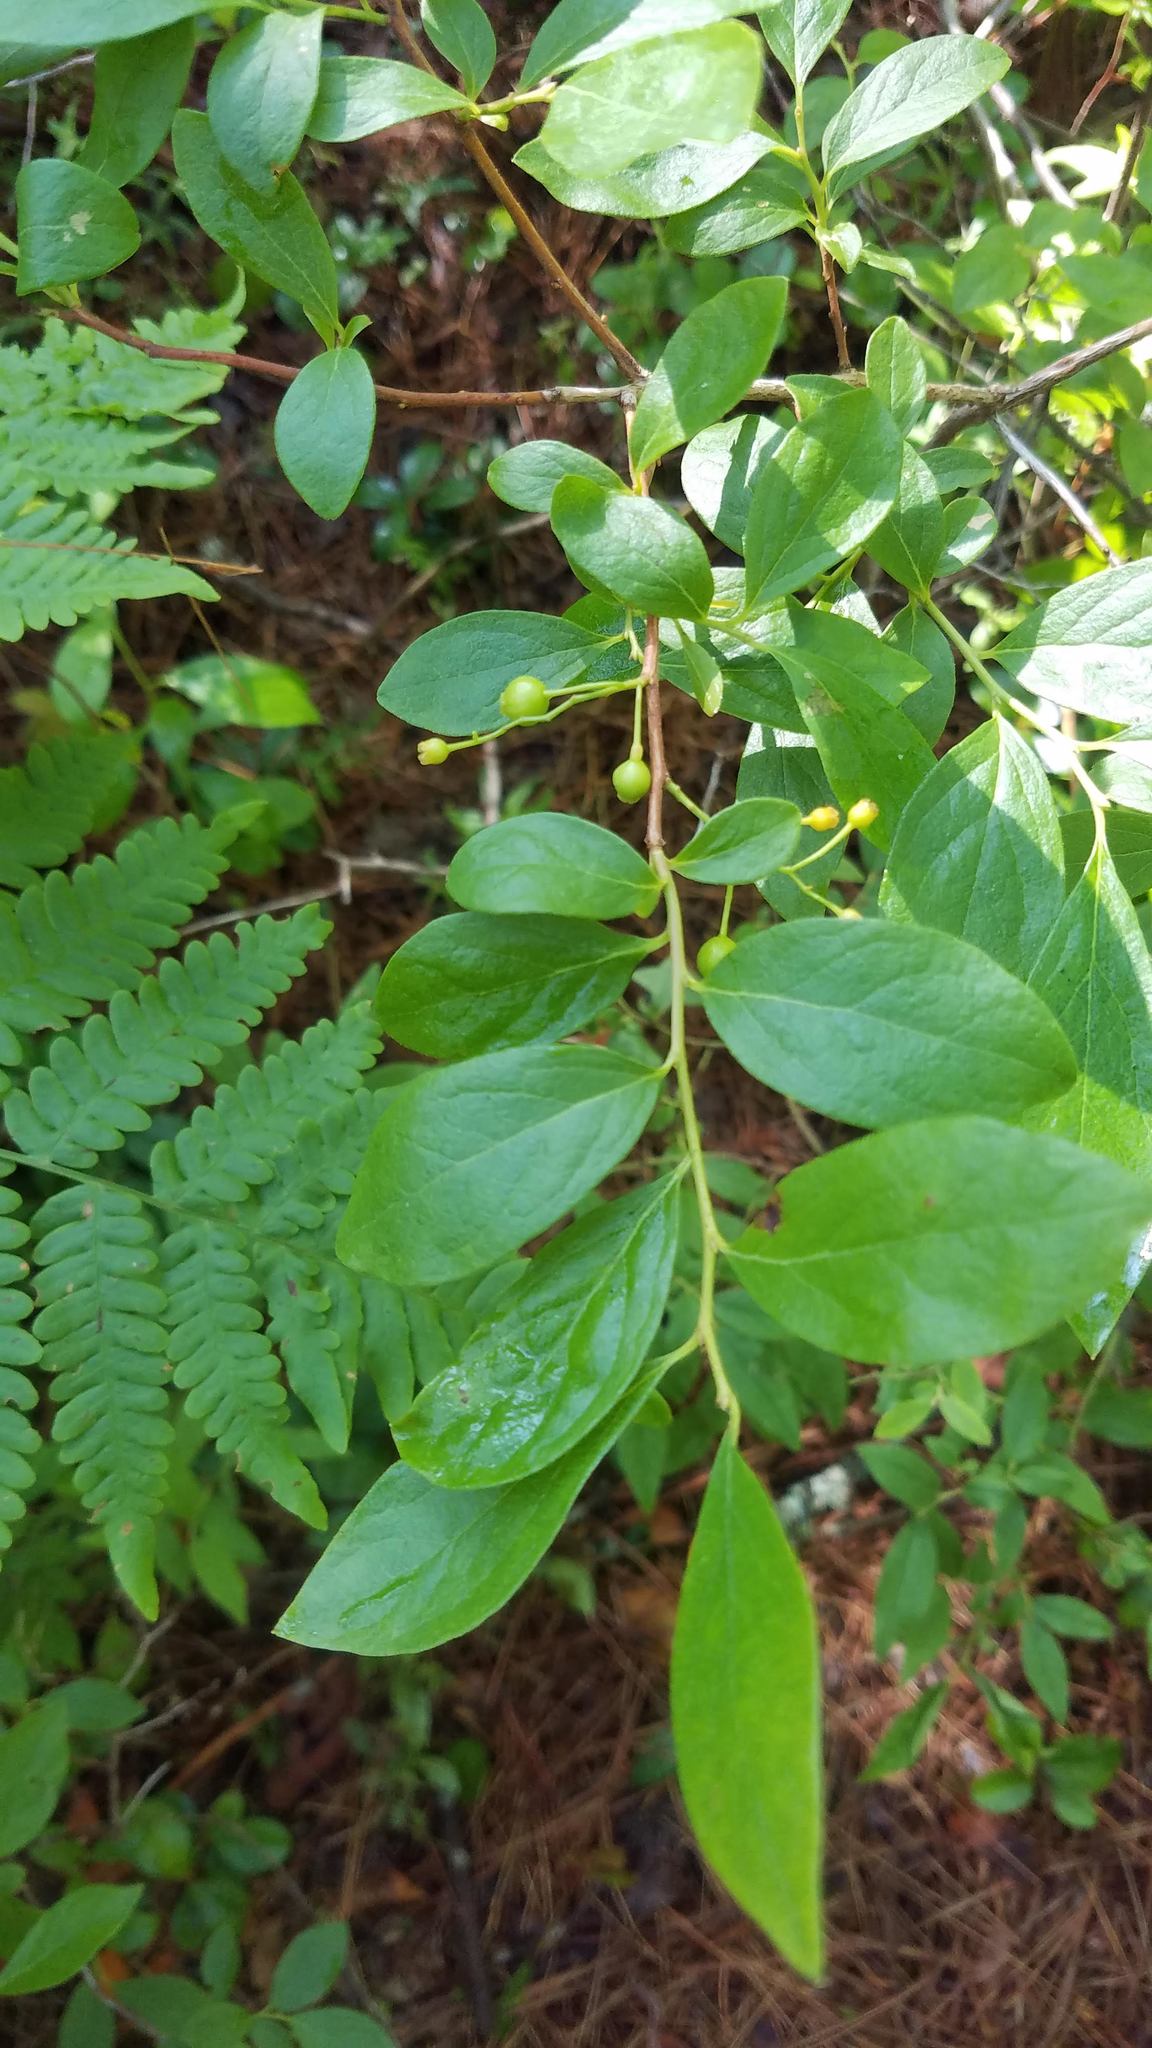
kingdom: Plantae
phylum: Tracheophyta
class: Magnoliopsida
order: Ericales
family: Ericaceae
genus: Gaylussacia
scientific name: Gaylussacia baccata
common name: Black huckleberry
